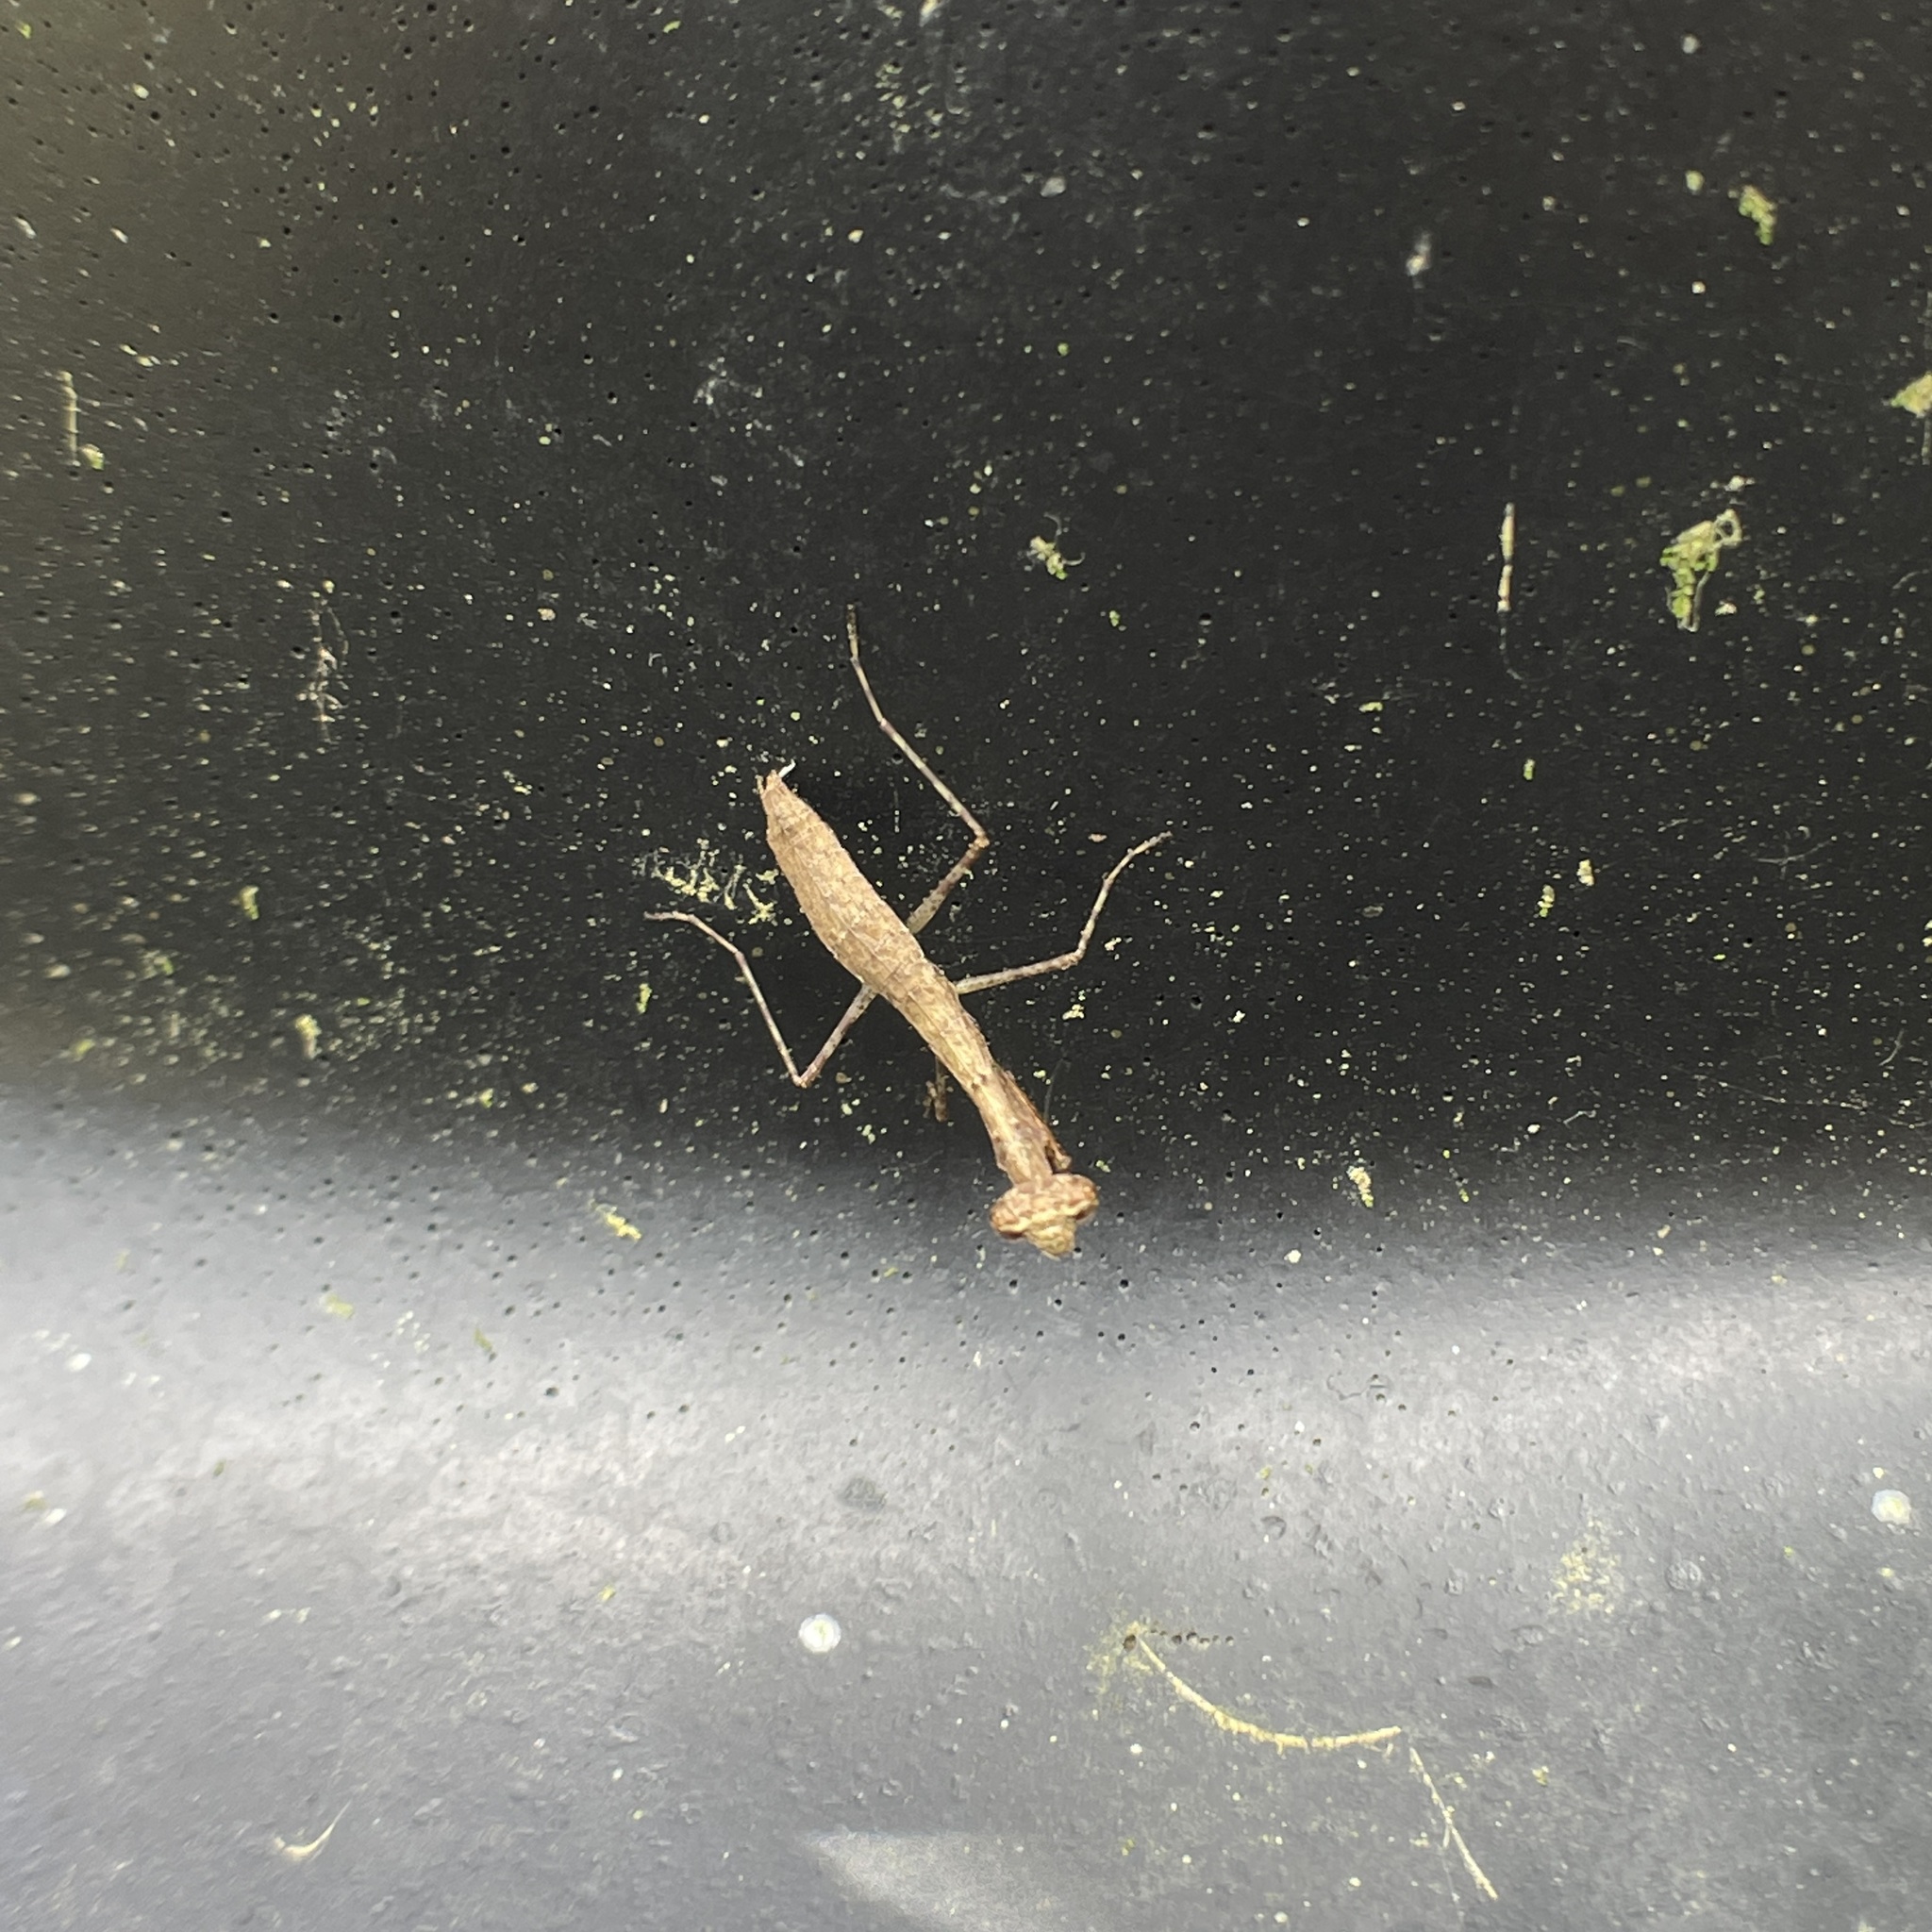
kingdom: Animalia
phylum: Arthropoda
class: Insecta
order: Mantodea
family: Thespidae
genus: Bantiella
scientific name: Bantiella trinitatis
